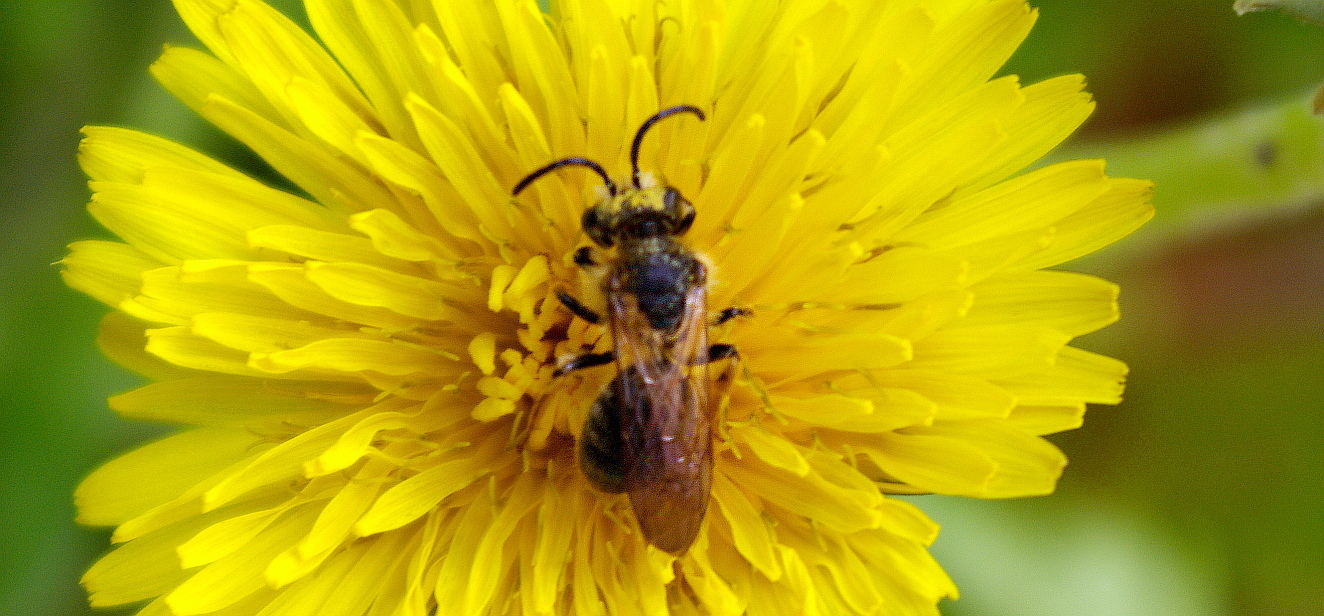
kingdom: Animalia
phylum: Arthropoda
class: Insecta
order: Hymenoptera
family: Andrenidae
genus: Andrena
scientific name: Andrena
